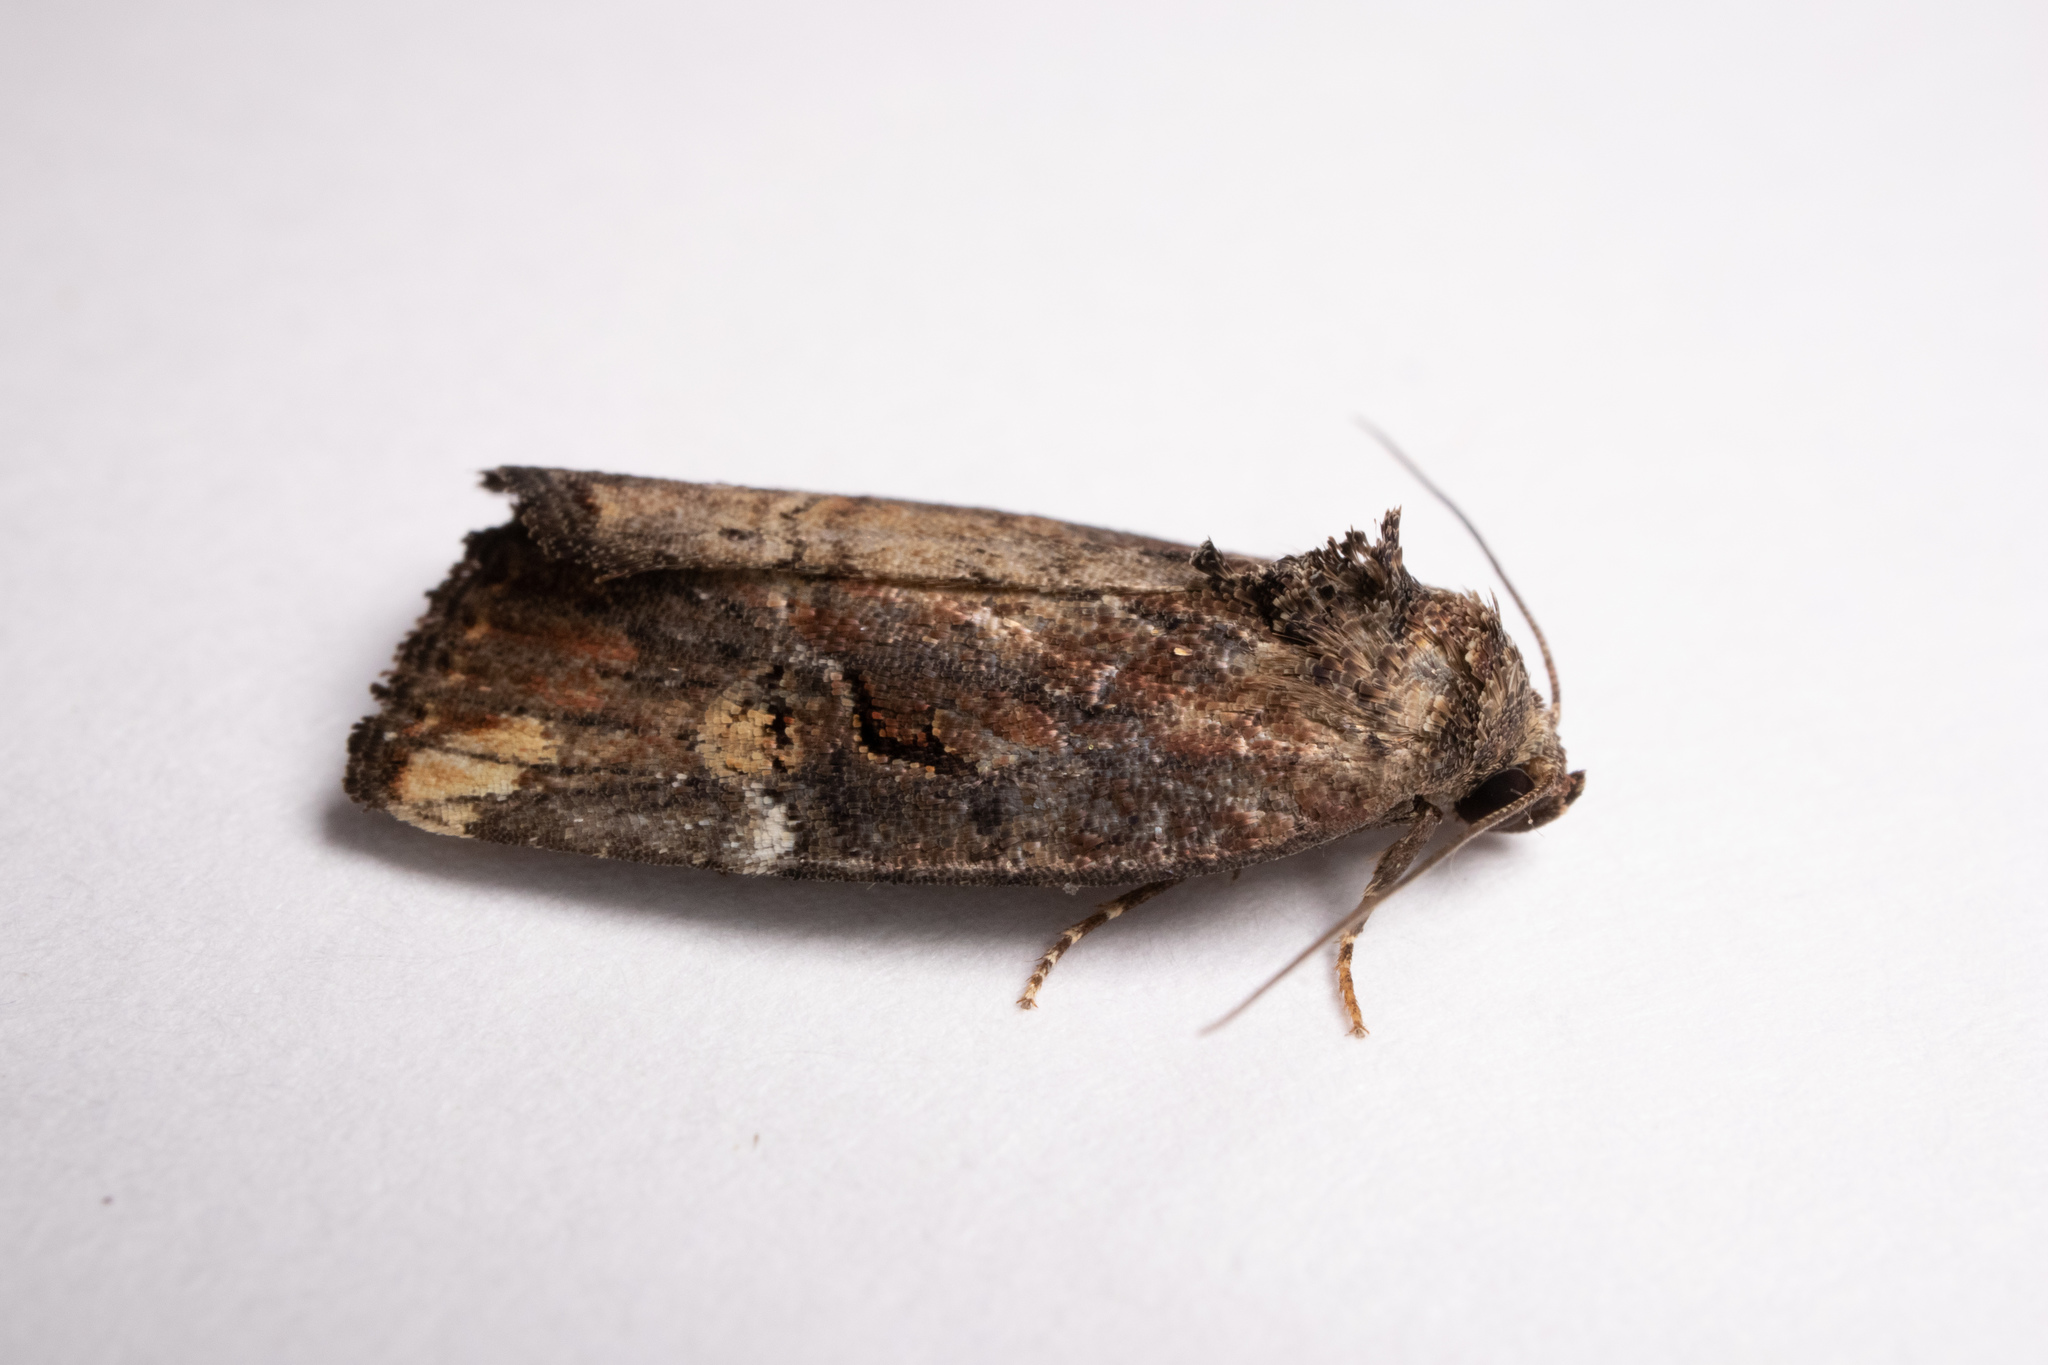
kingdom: Animalia
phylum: Arthropoda
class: Insecta
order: Lepidoptera
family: Noctuidae
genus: Elaphria
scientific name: Elaphria versicolor
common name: Fir harlequin
